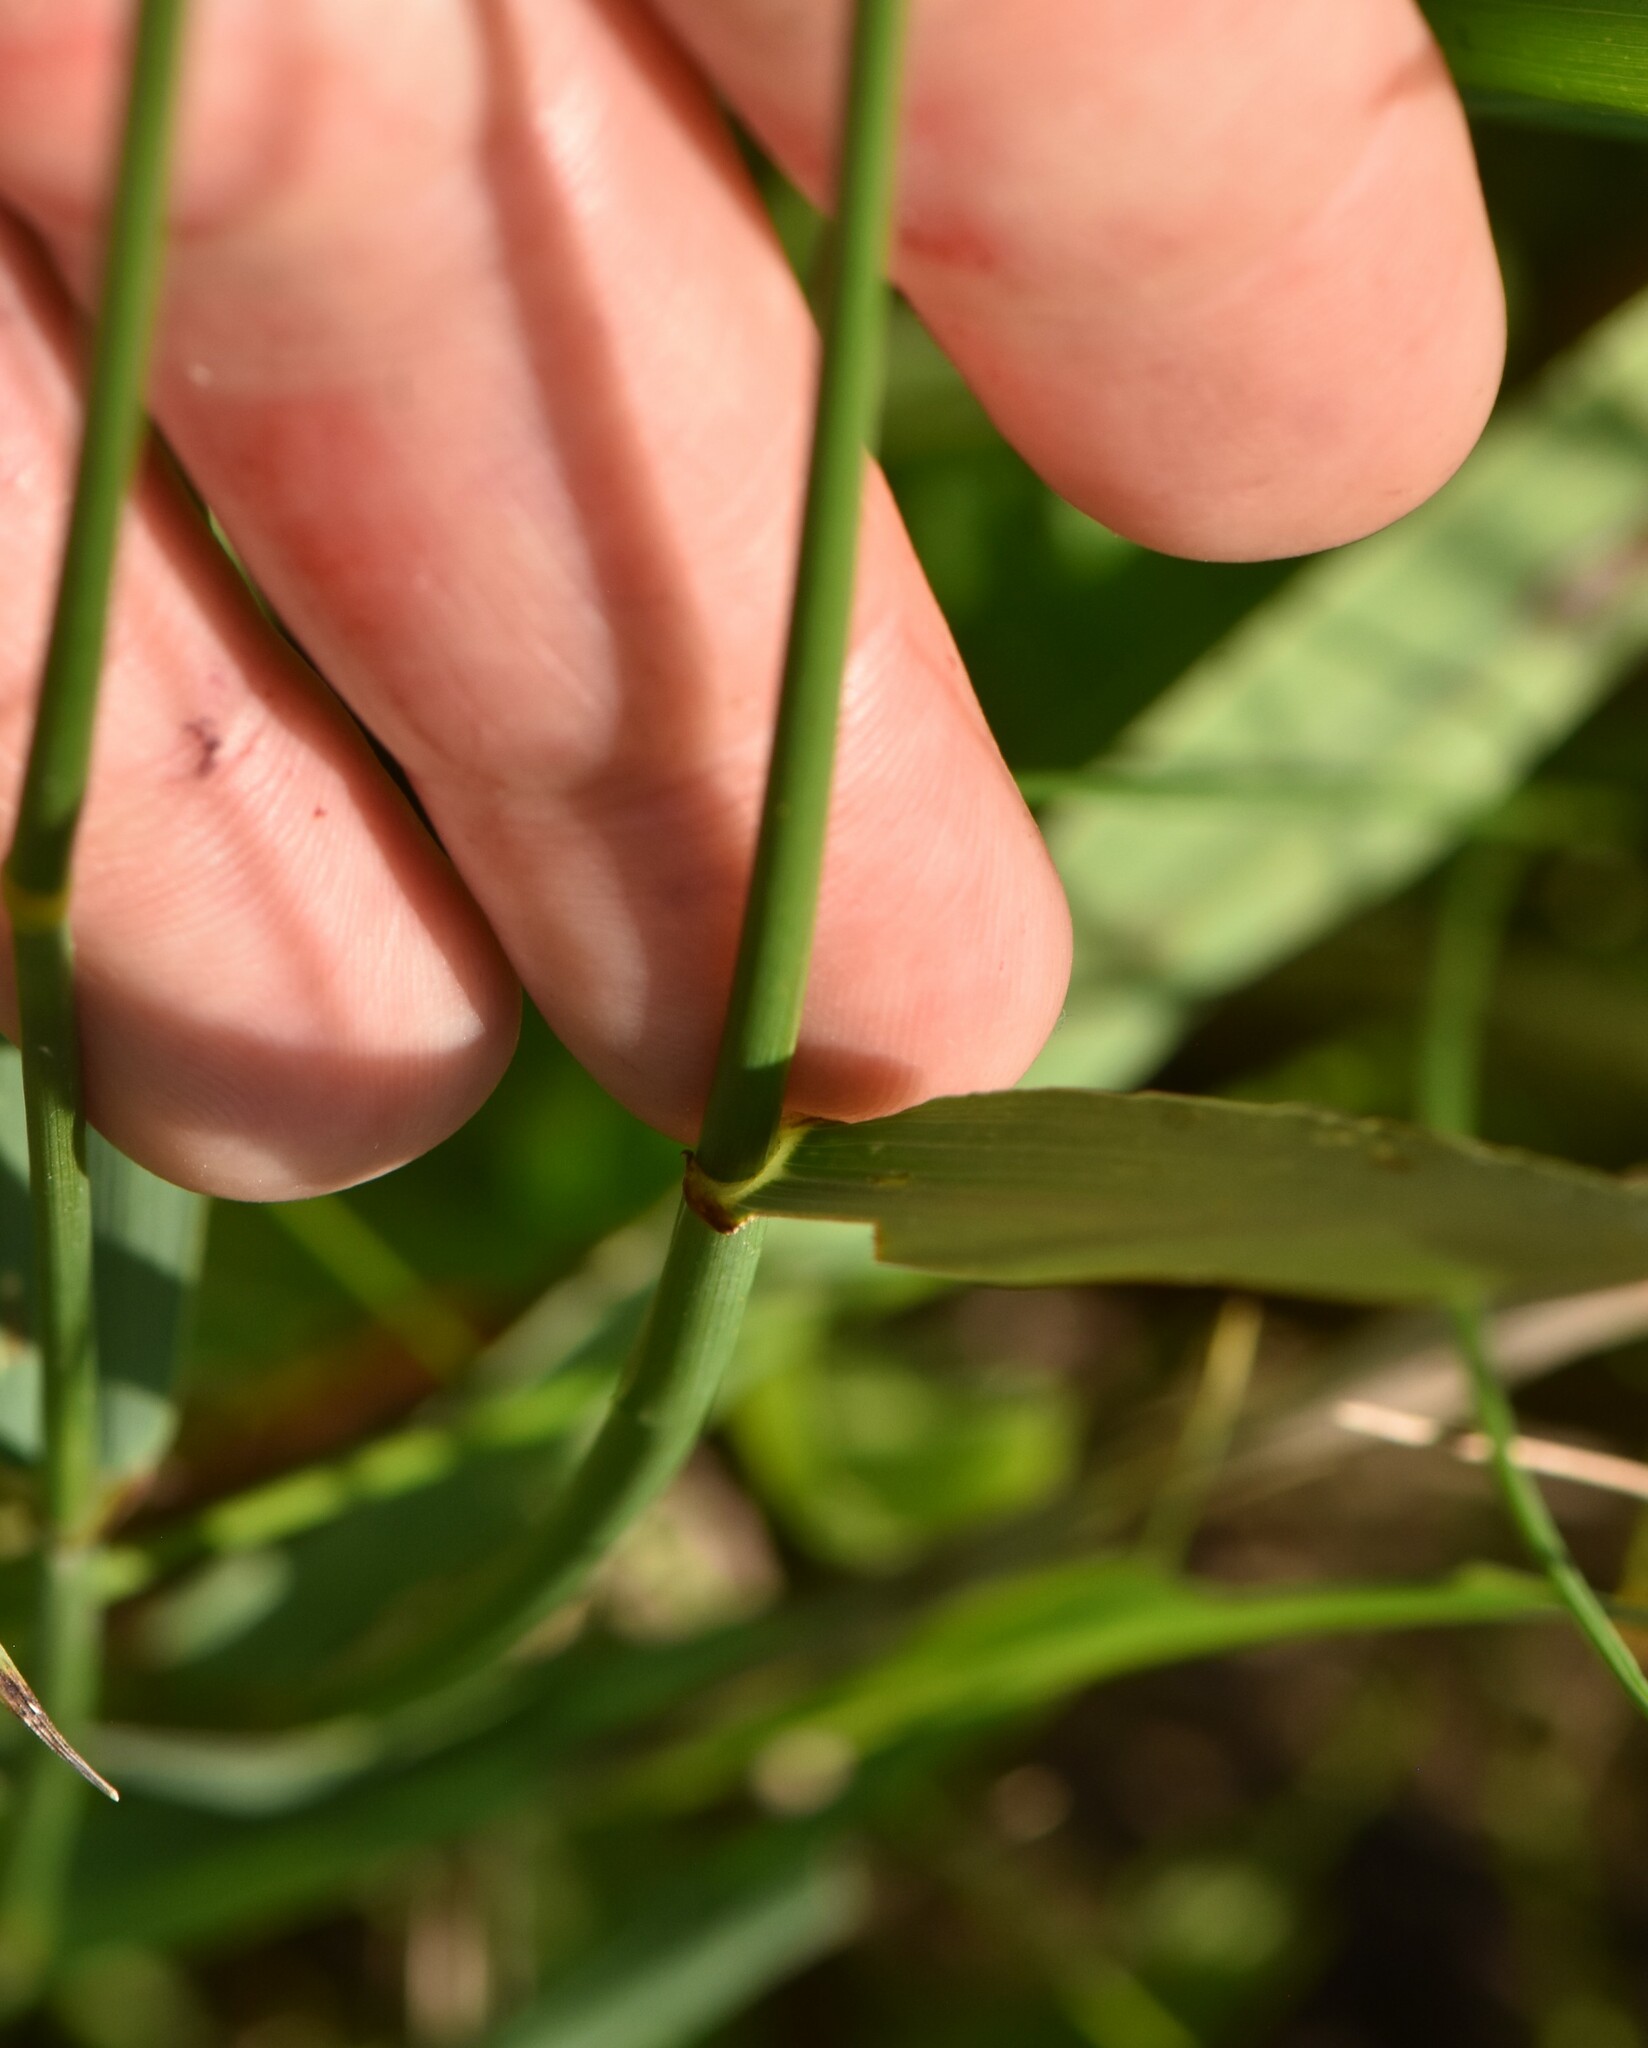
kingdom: Plantae
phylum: Tracheophyta
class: Liliopsida
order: Poales
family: Poaceae
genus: Elymus
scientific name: Elymus repens
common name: Quackgrass
